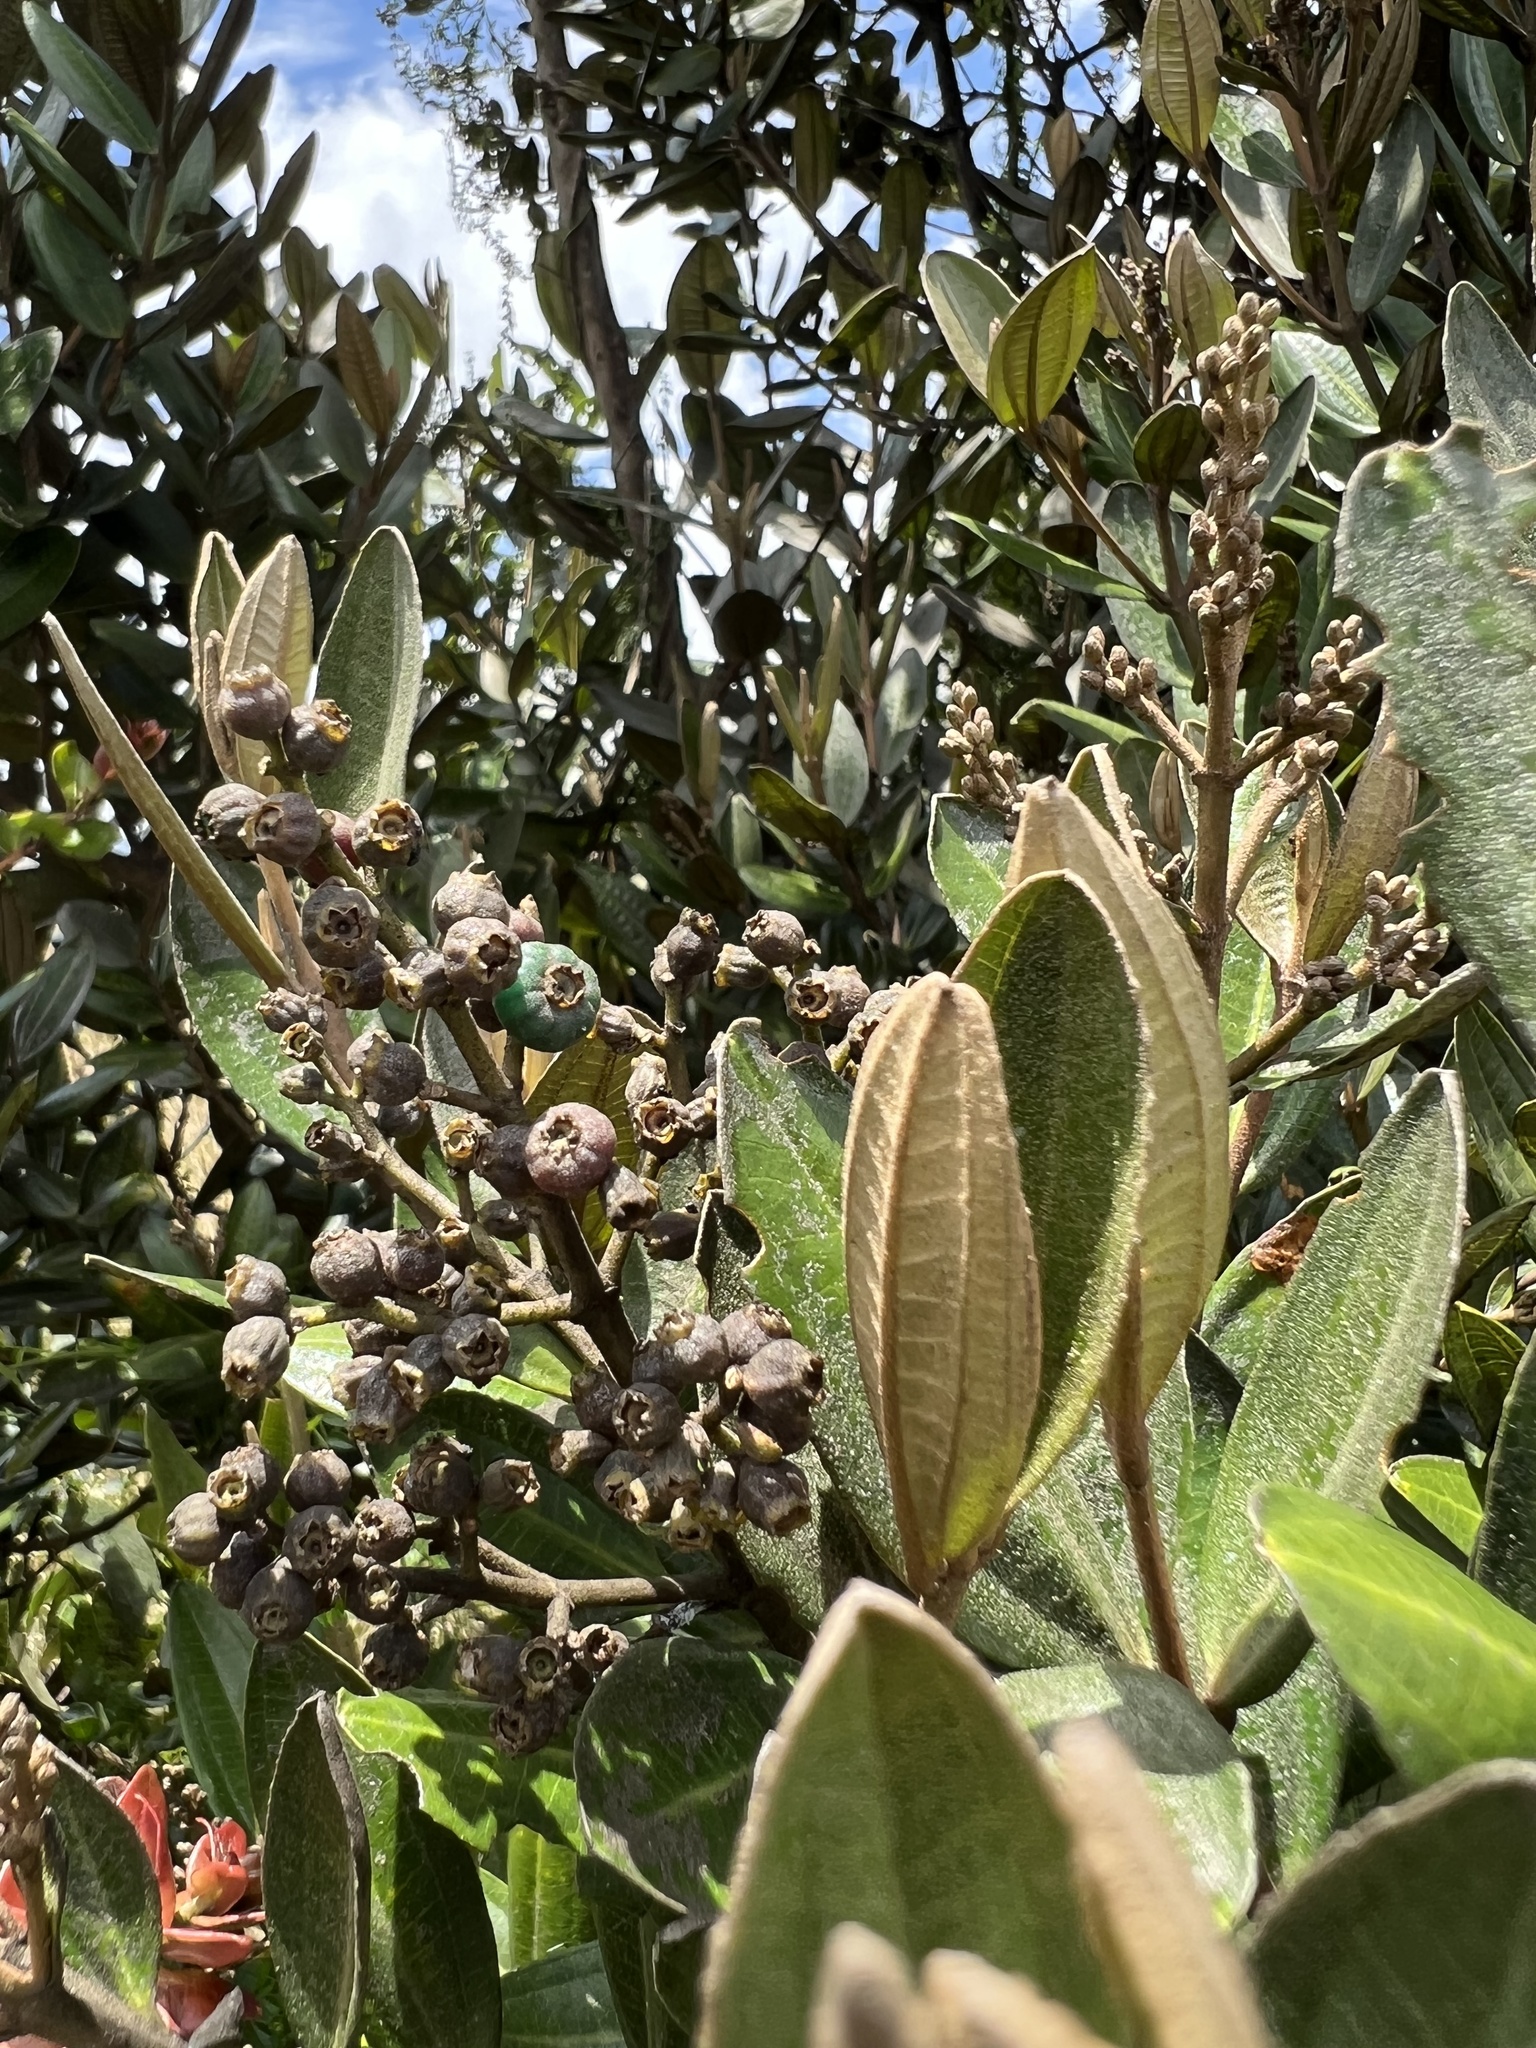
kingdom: Plantae
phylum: Tracheophyta
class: Magnoliopsida
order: Myrtales
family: Melastomataceae
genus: Miconia
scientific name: Miconia squamulosa
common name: Squamulose maya
